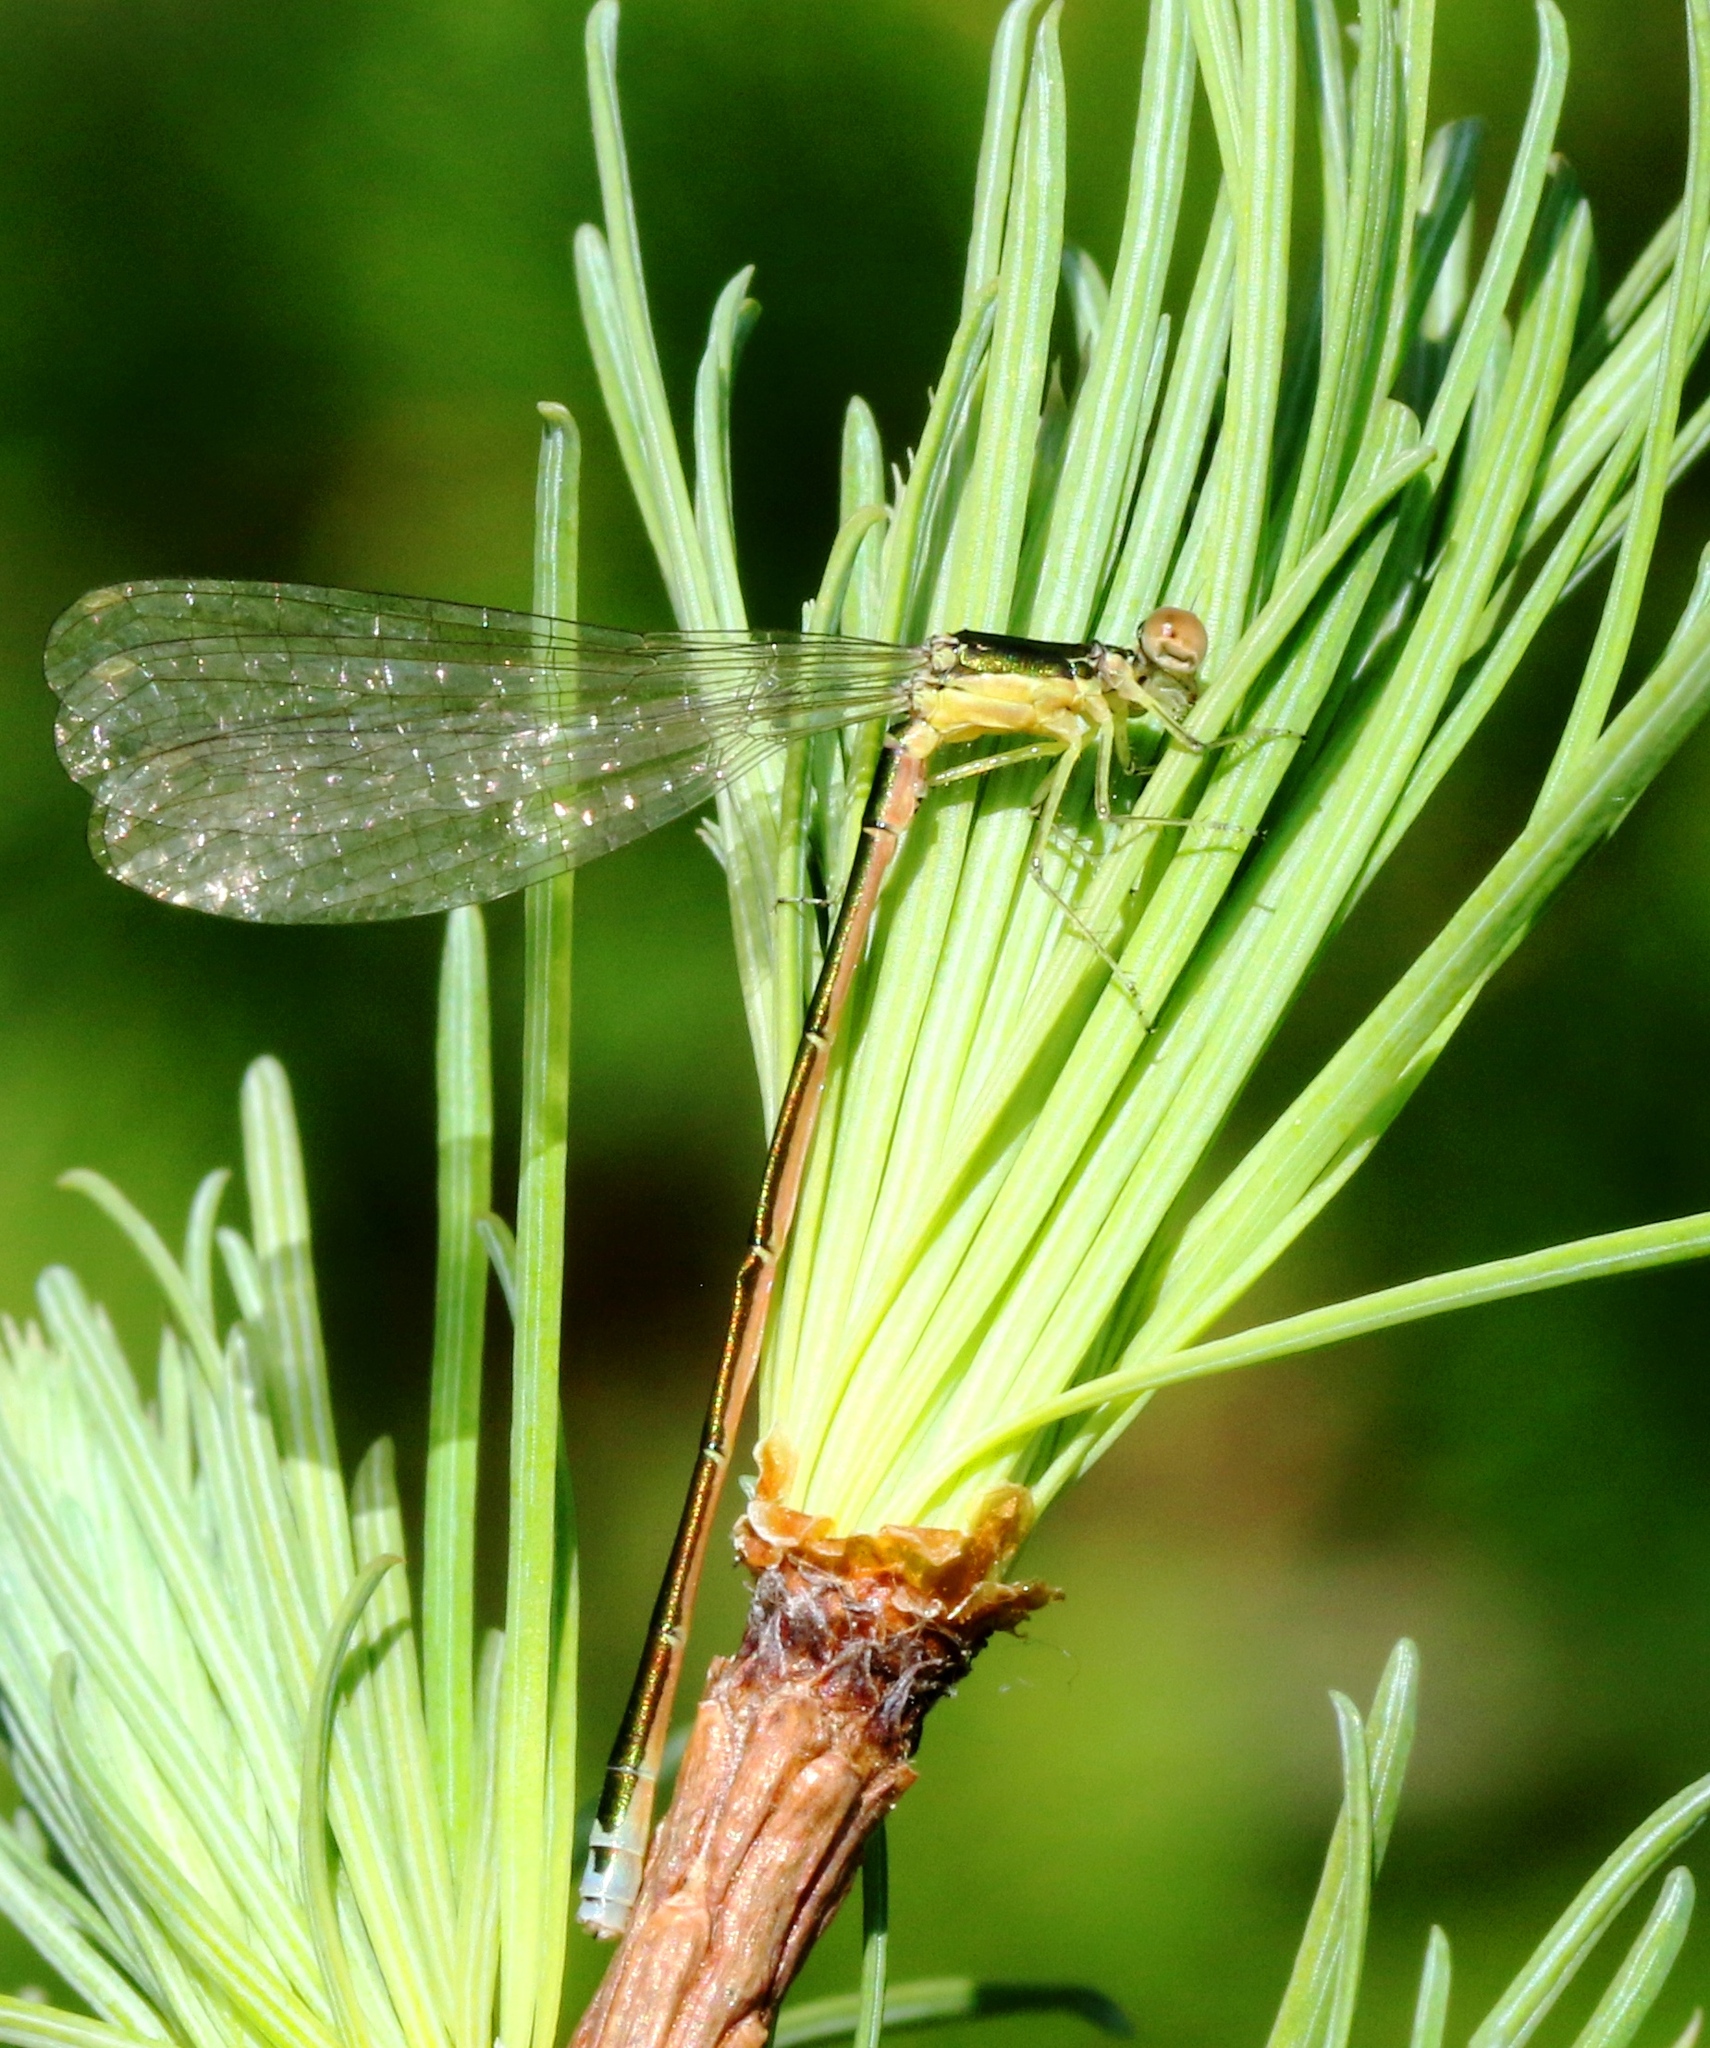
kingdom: Animalia
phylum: Arthropoda
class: Insecta
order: Odonata
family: Coenagrionidae
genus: Nehalennia
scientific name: Nehalennia irene
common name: Sedge sprite
